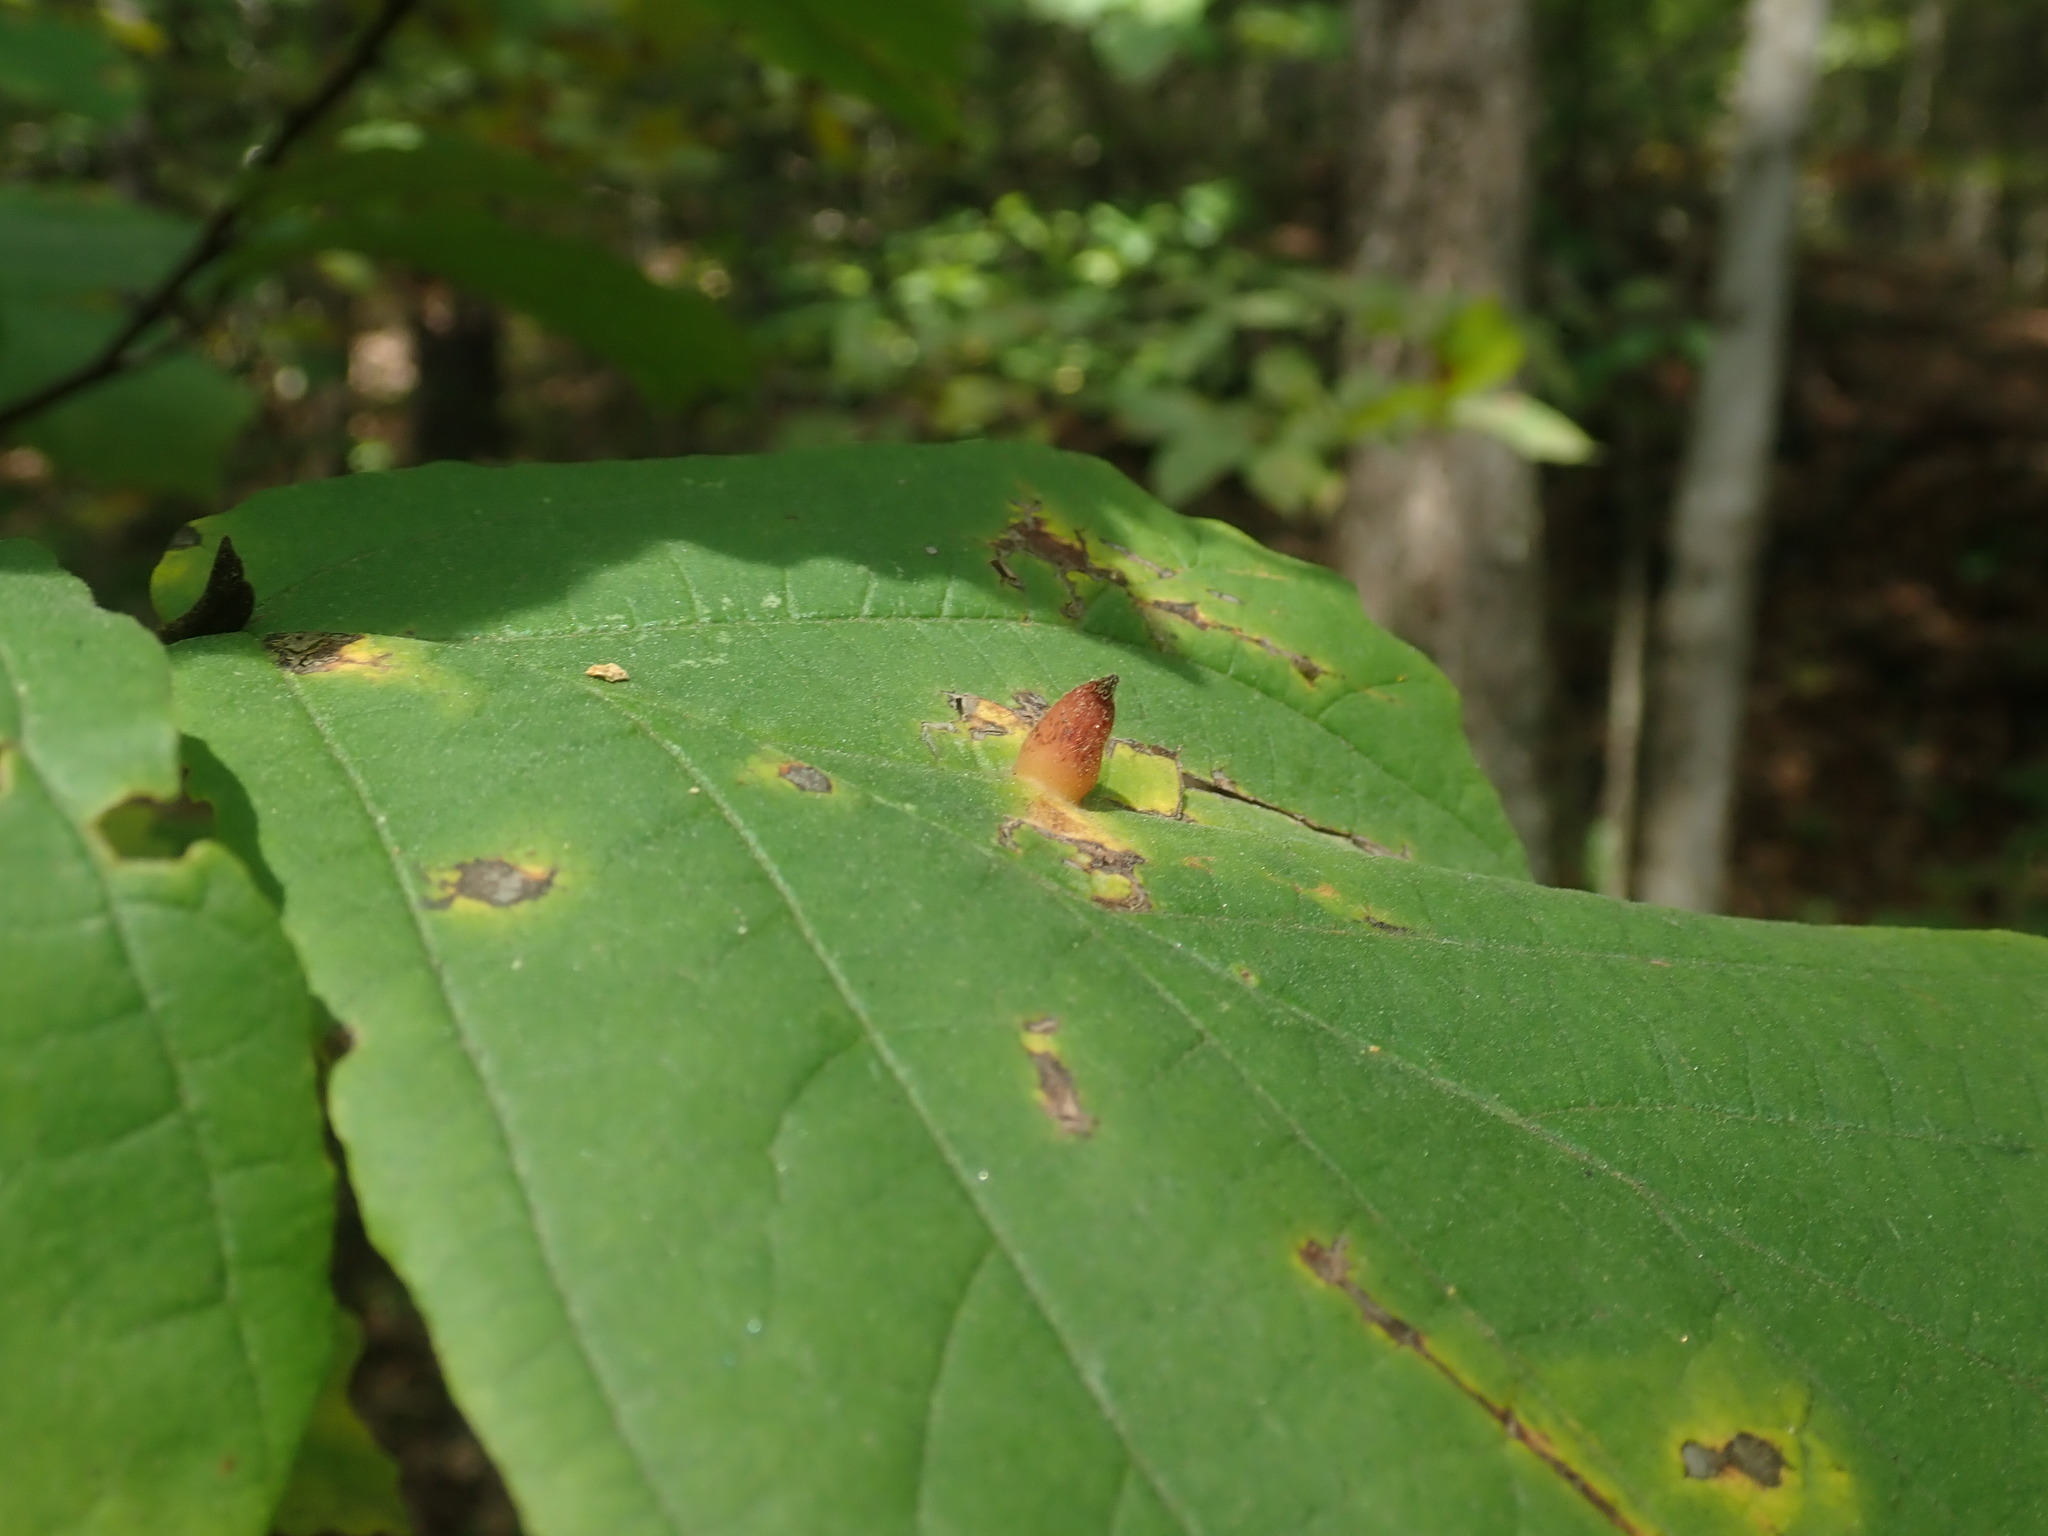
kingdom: Animalia
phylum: Arthropoda
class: Insecta
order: Hemiptera
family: Aphididae
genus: Hormaphis
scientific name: Hormaphis hamamelidis
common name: Witch-hazel cone gall aphid
